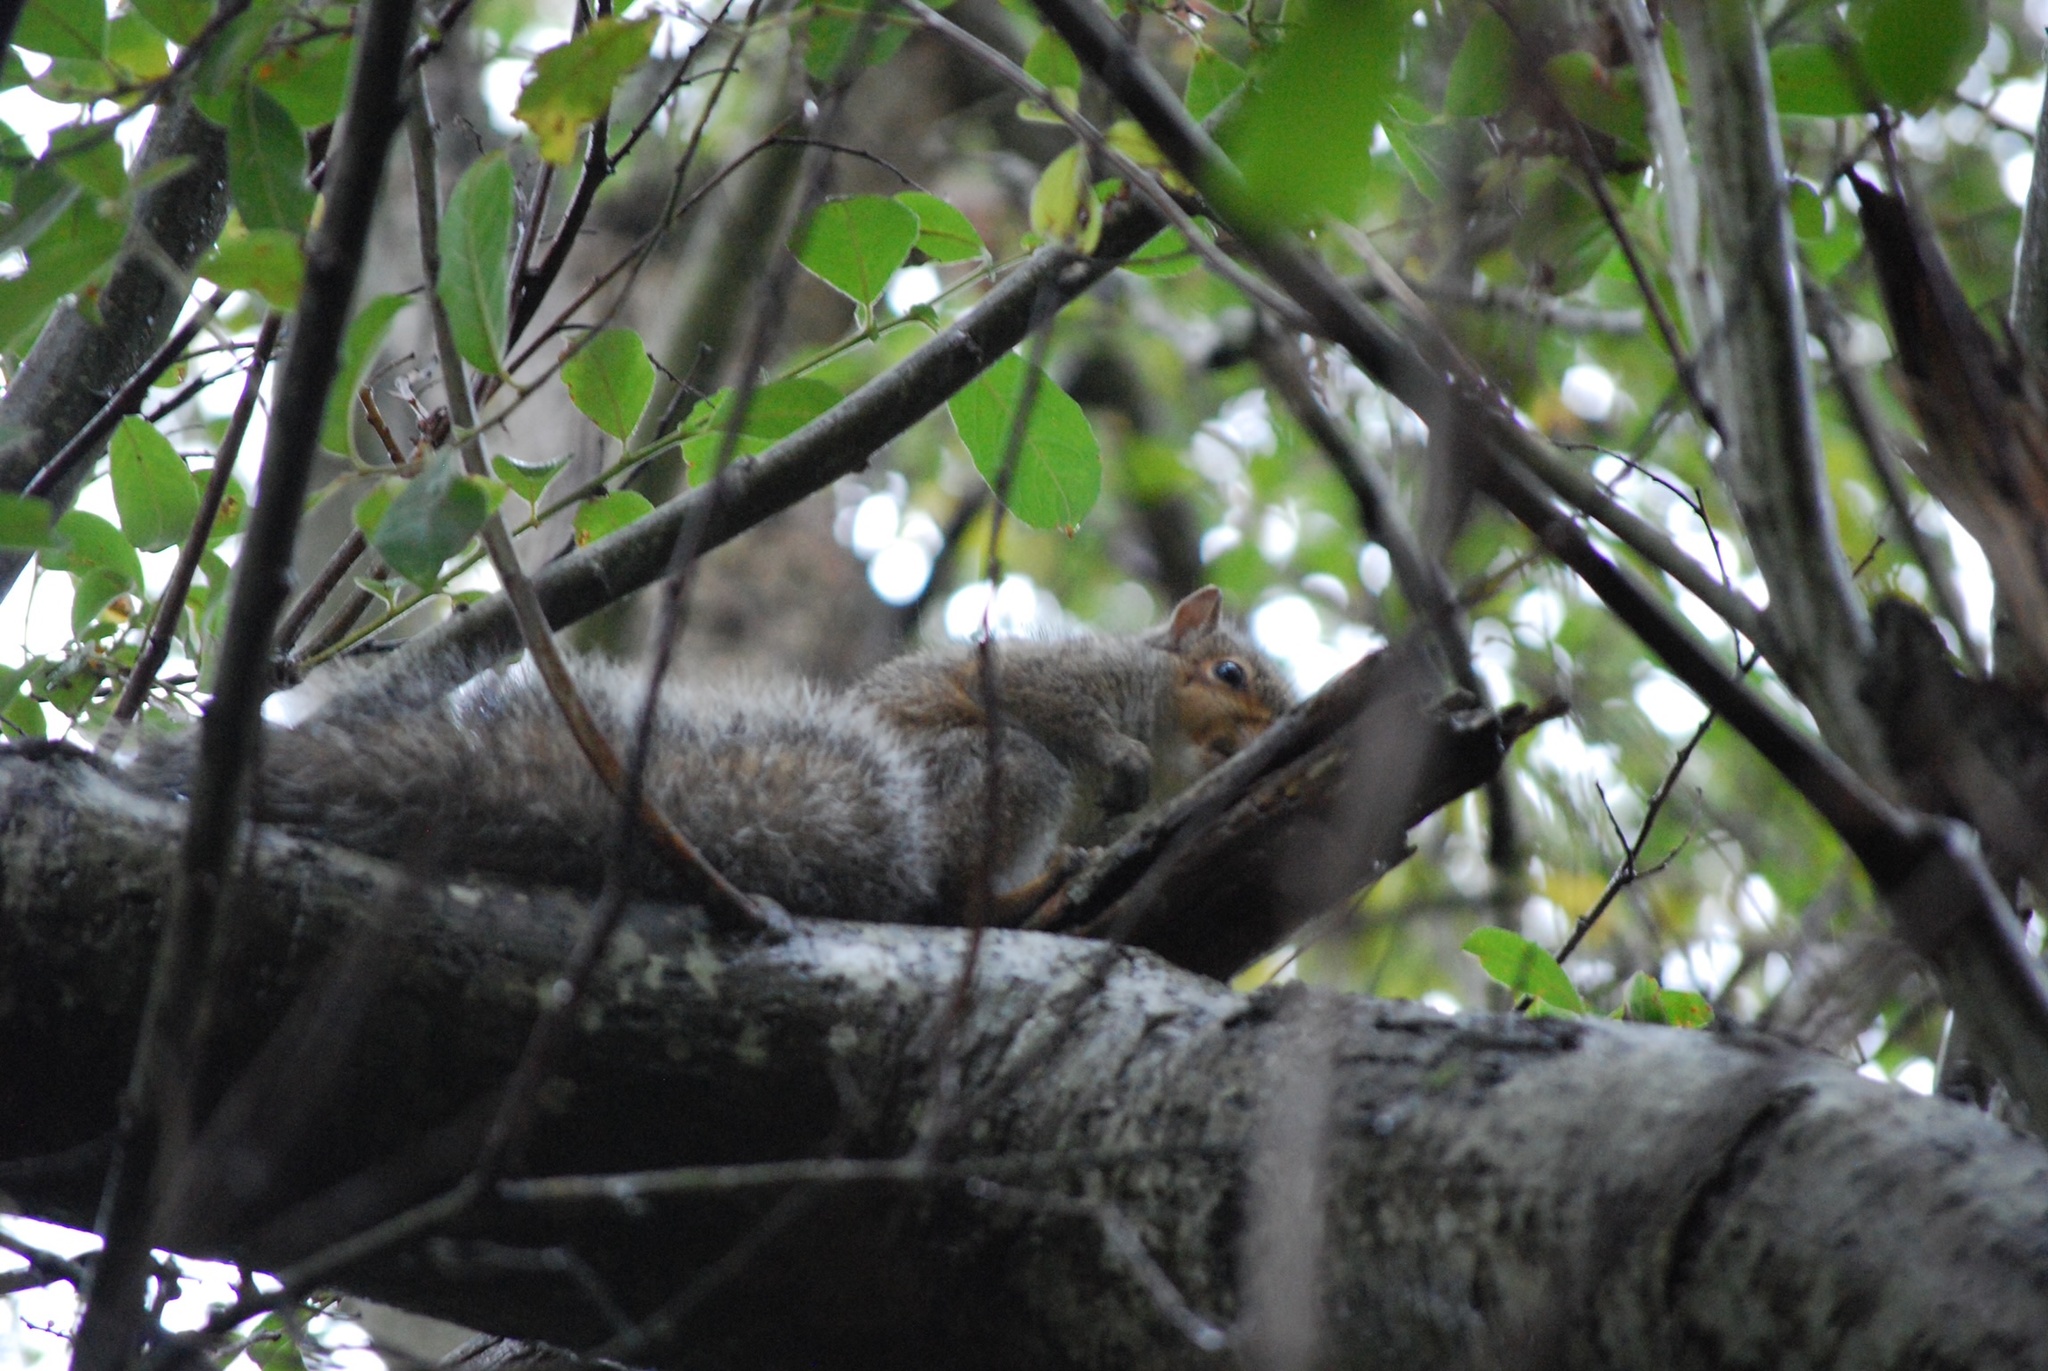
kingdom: Animalia
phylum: Chordata
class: Mammalia
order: Rodentia
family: Sciuridae
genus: Sciurus
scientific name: Sciurus carolinensis
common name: Eastern gray squirrel
